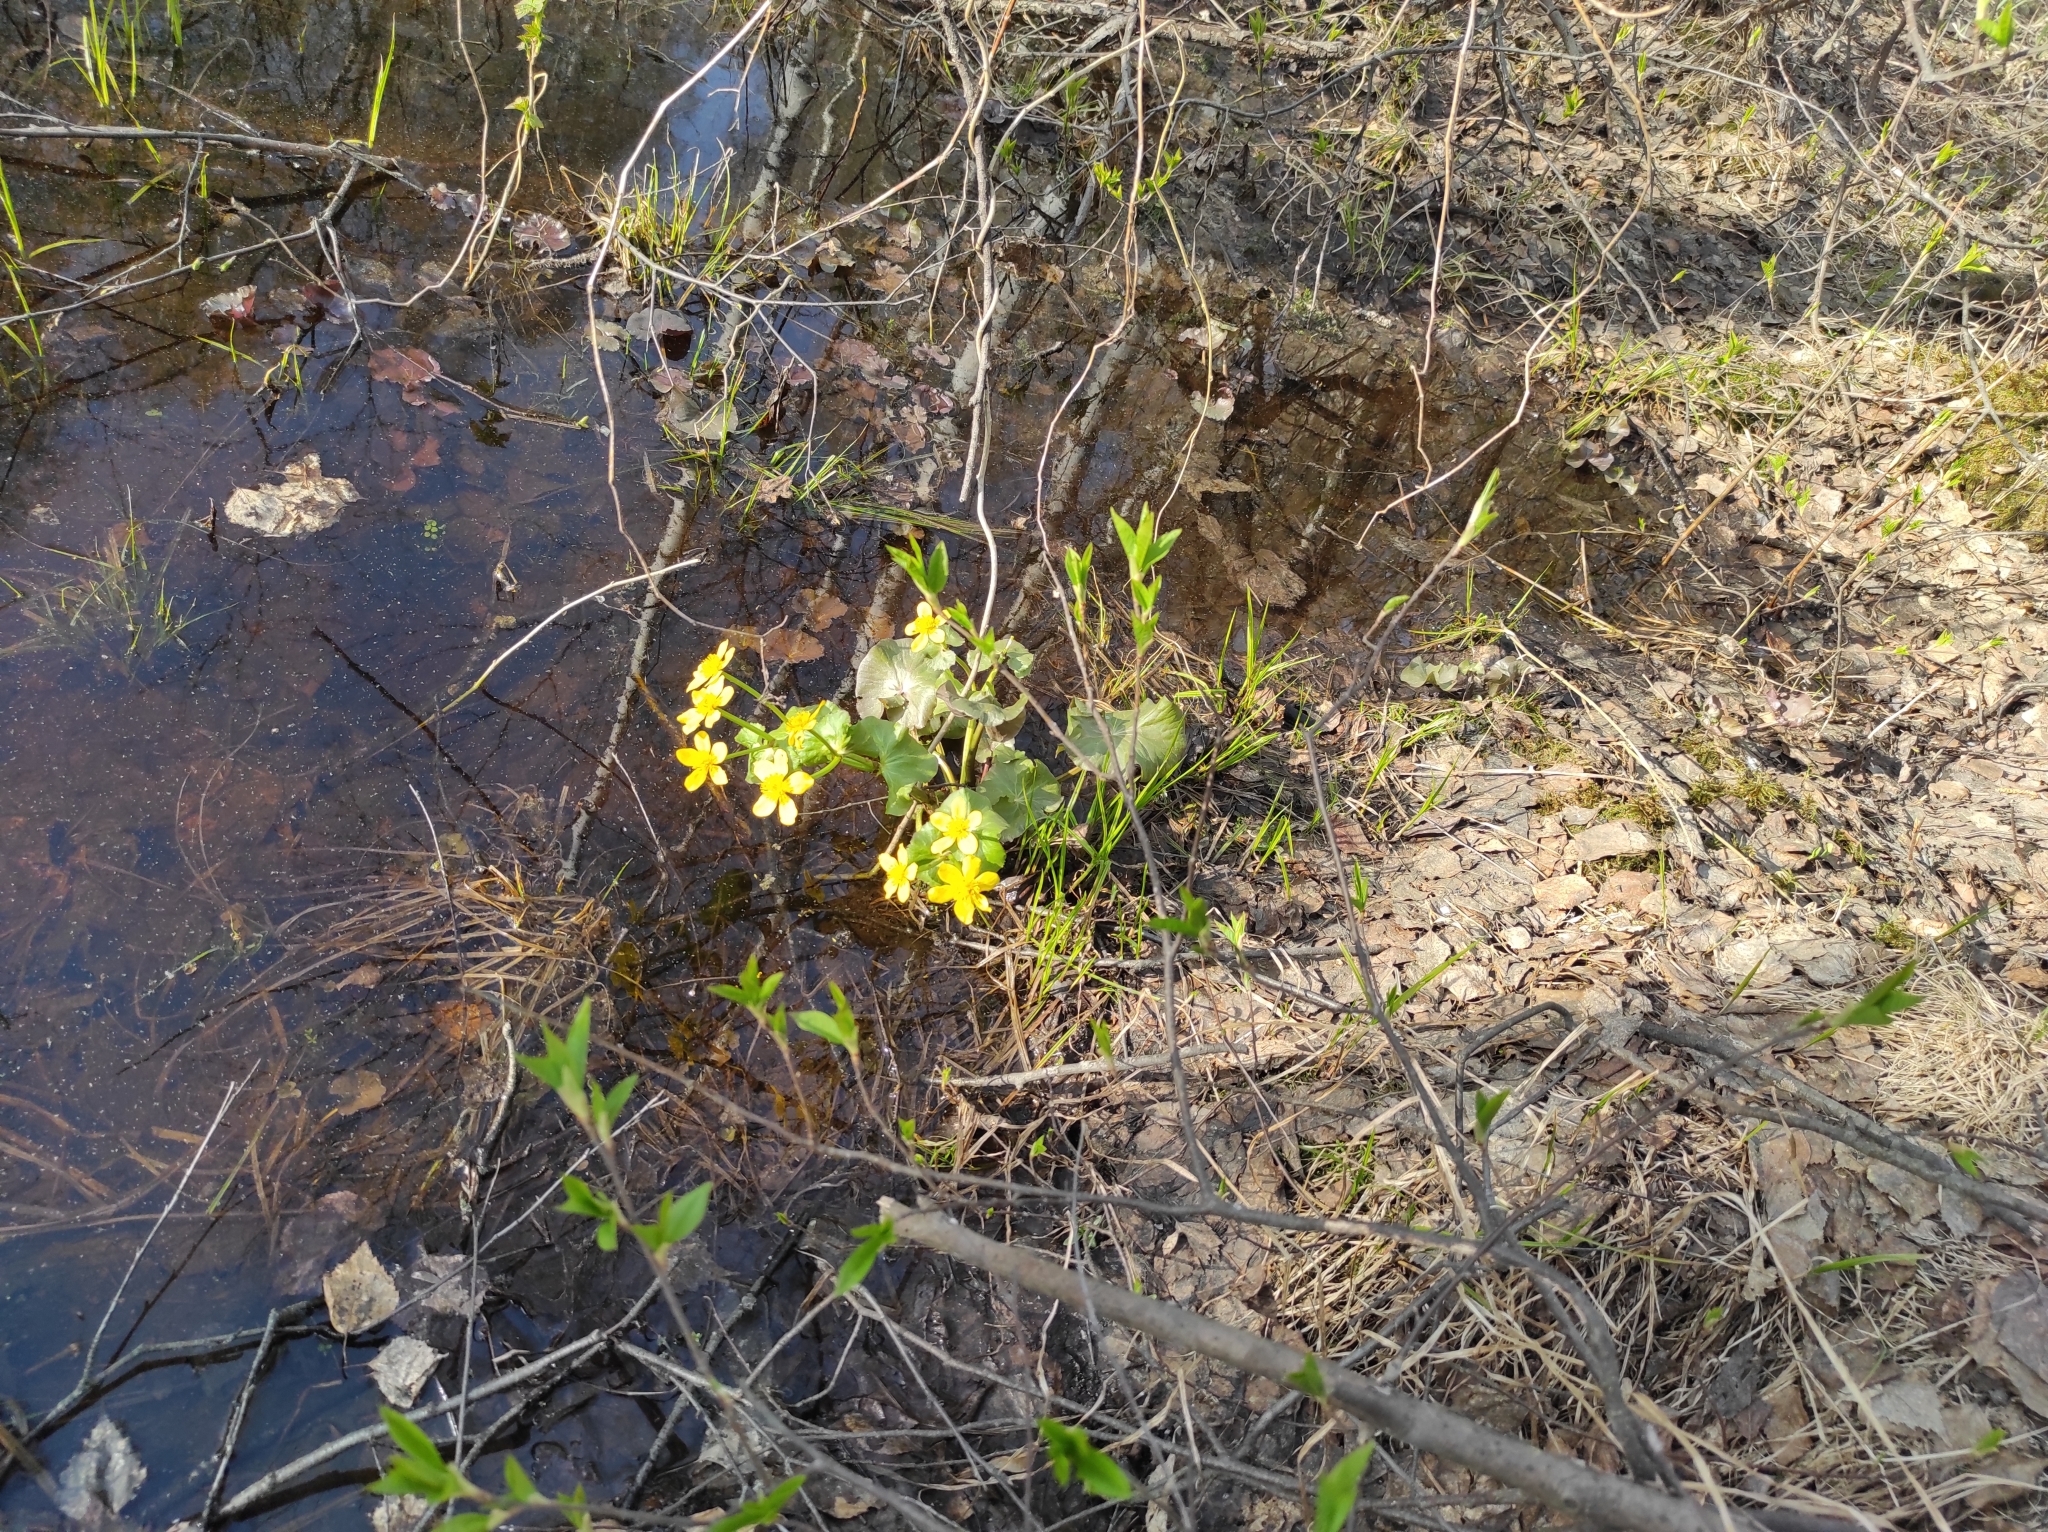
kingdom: Plantae
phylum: Tracheophyta
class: Magnoliopsida
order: Ranunculales
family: Ranunculaceae
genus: Caltha
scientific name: Caltha palustris
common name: Marsh marigold
